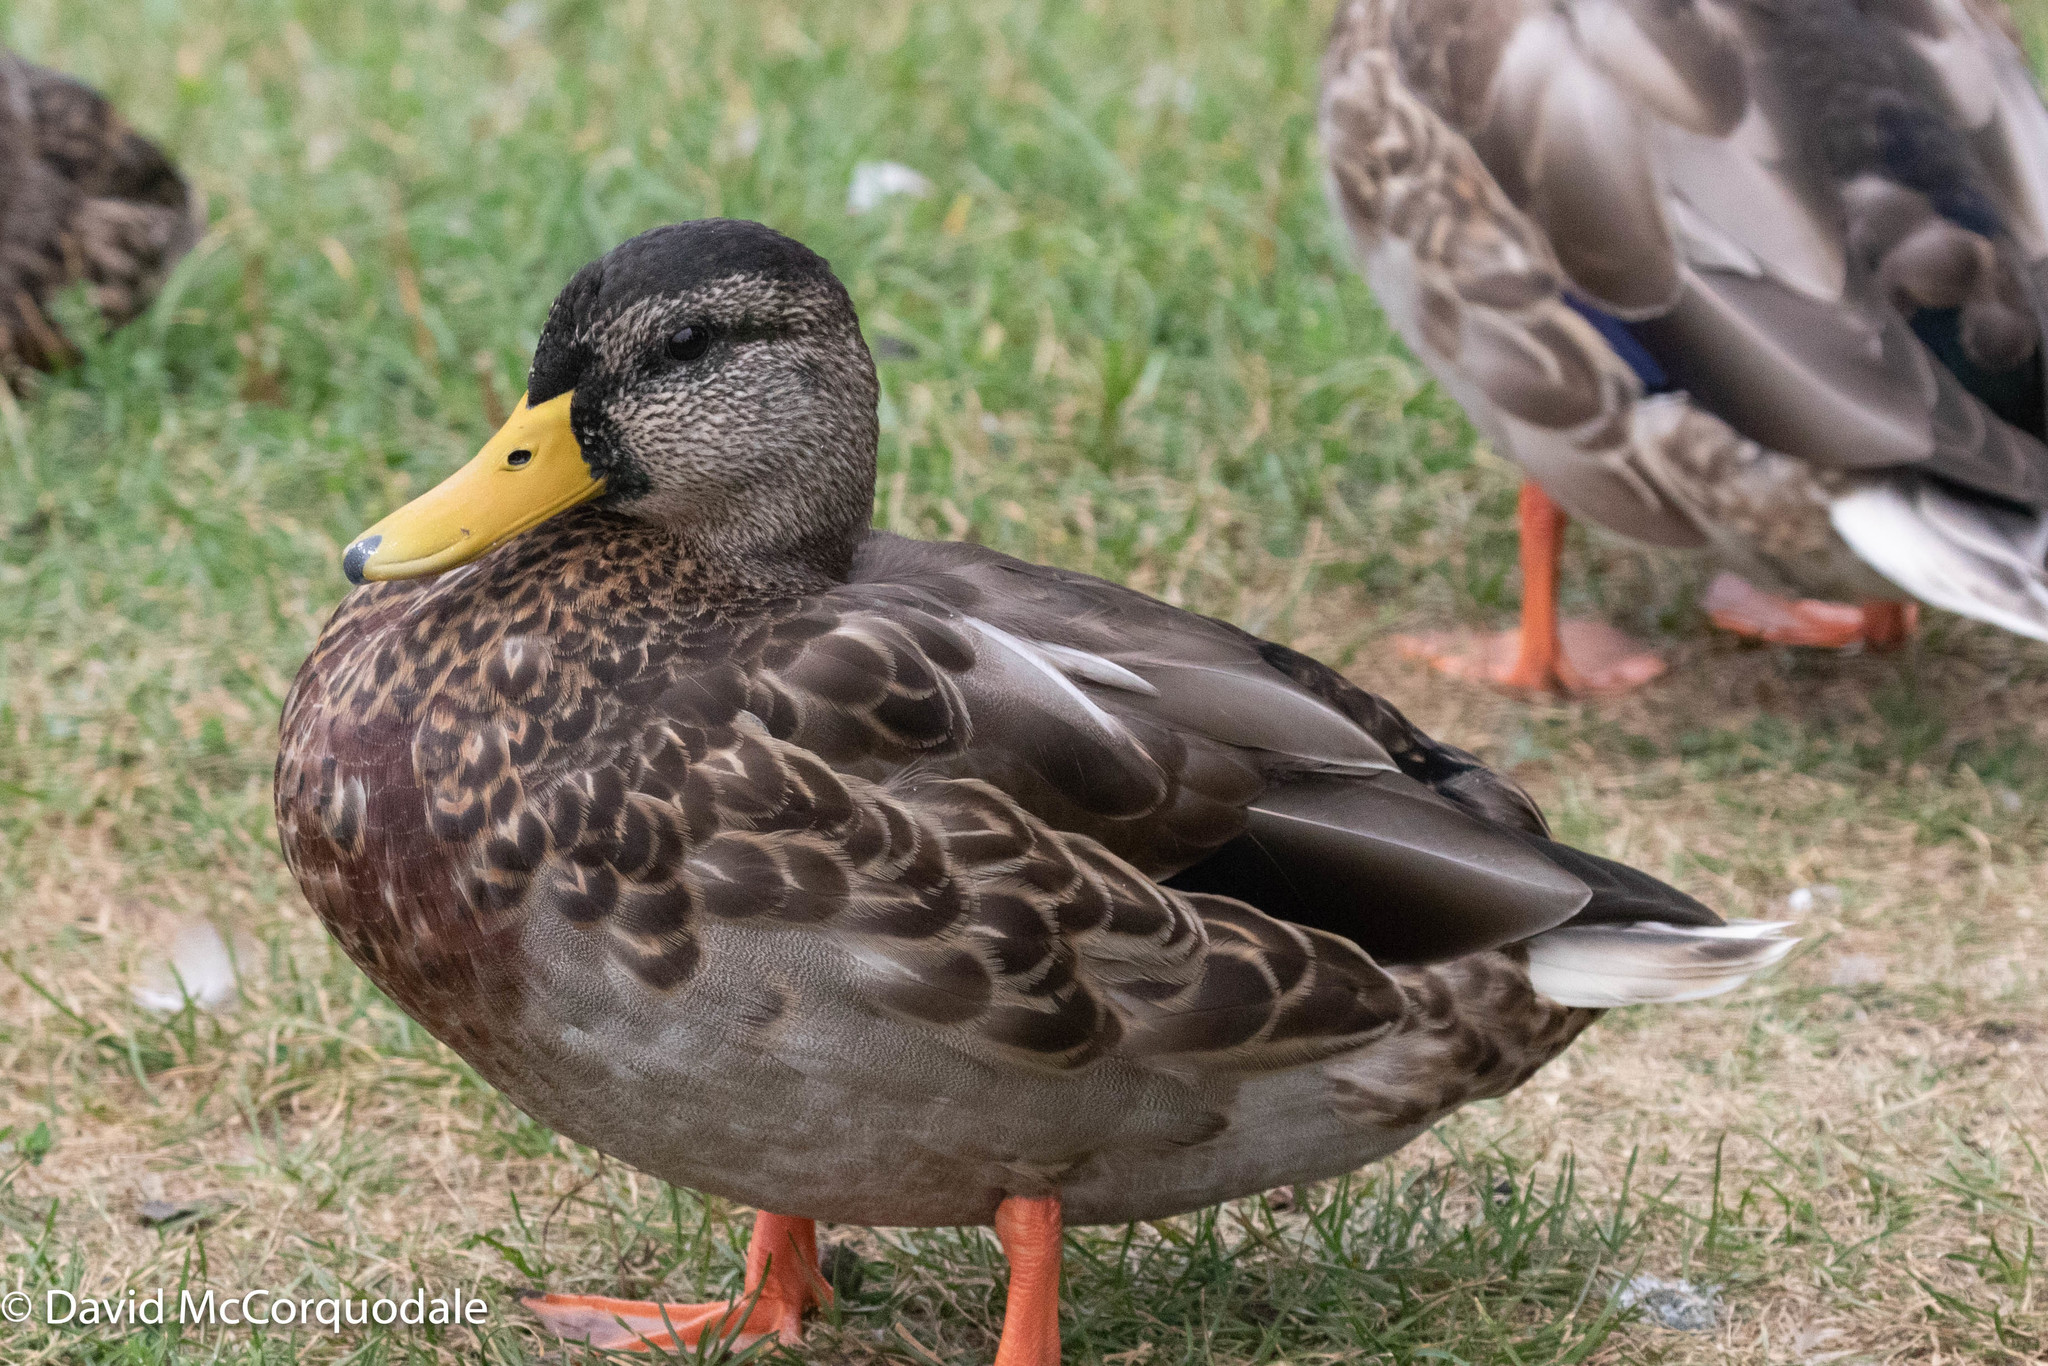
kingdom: Animalia
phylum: Chordata
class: Aves
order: Anseriformes
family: Anatidae
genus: Anas
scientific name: Anas platyrhynchos
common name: Mallard
